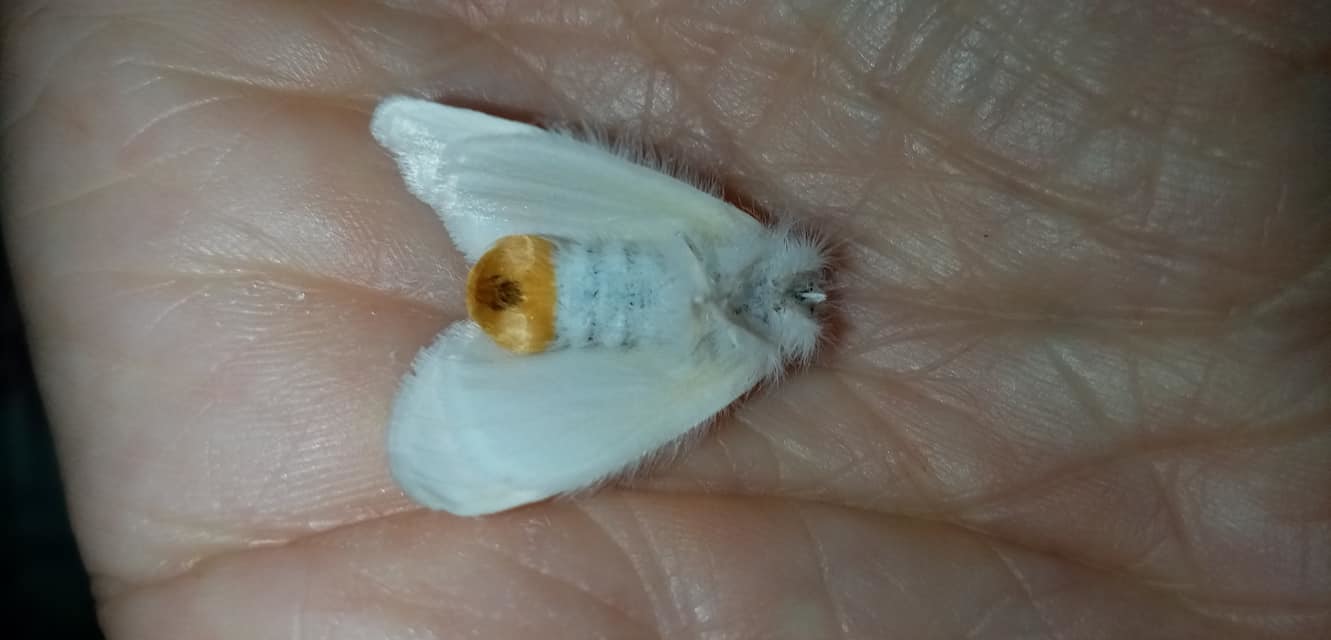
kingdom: Animalia
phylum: Arthropoda
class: Insecta
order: Lepidoptera
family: Erebidae
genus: Sphrageidus
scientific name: Sphrageidus similis
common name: Yellow-tail
